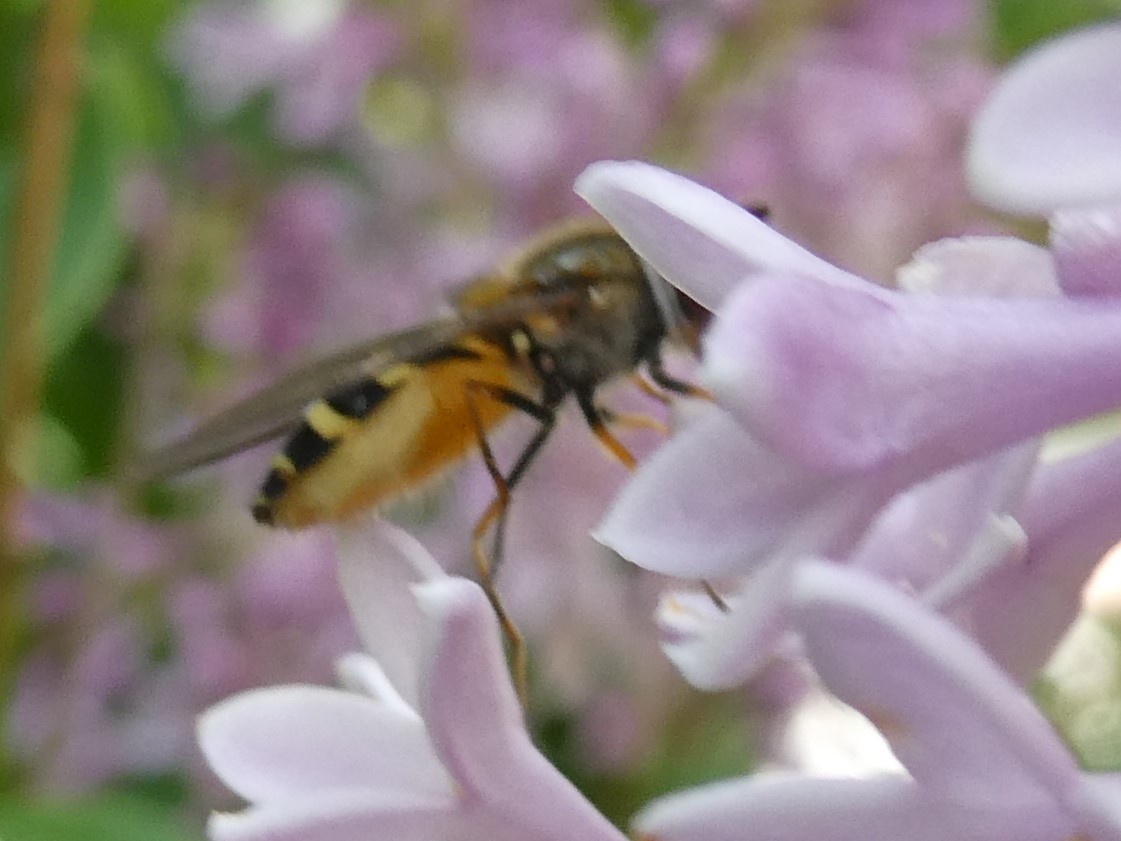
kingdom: Animalia
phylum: Arthropoda
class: Insecta
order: Diptera
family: Syrphidae
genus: Syrphus
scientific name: Syrphus
